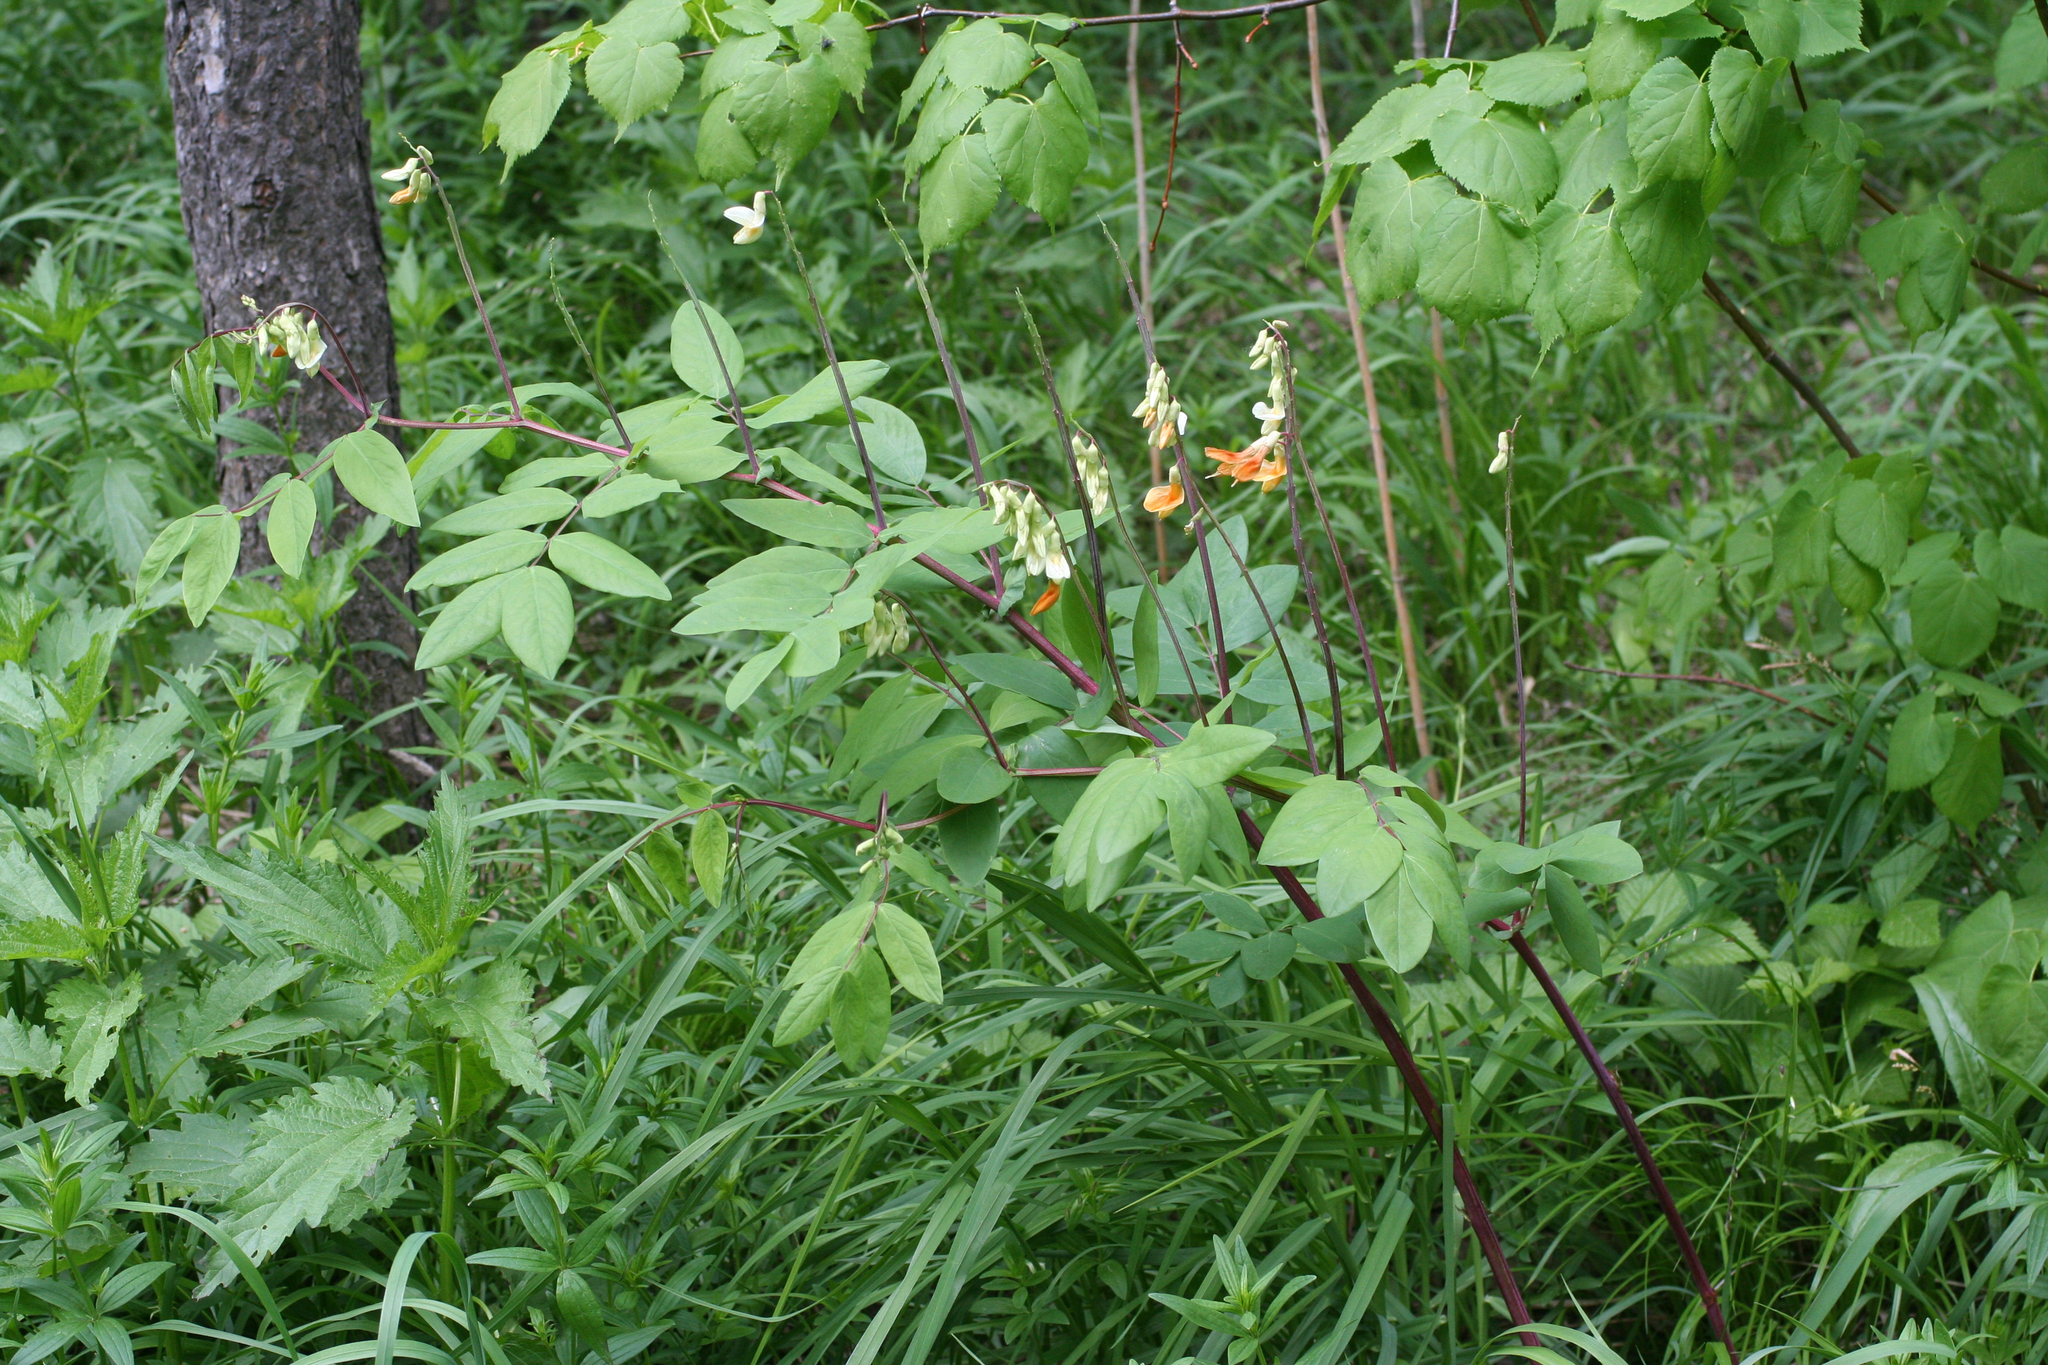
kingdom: Plantae
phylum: Tracheophyta
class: Magnoliopsida
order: Fabales
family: Fabaceae
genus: Lathyrus
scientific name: Lathyrus gmelinii
